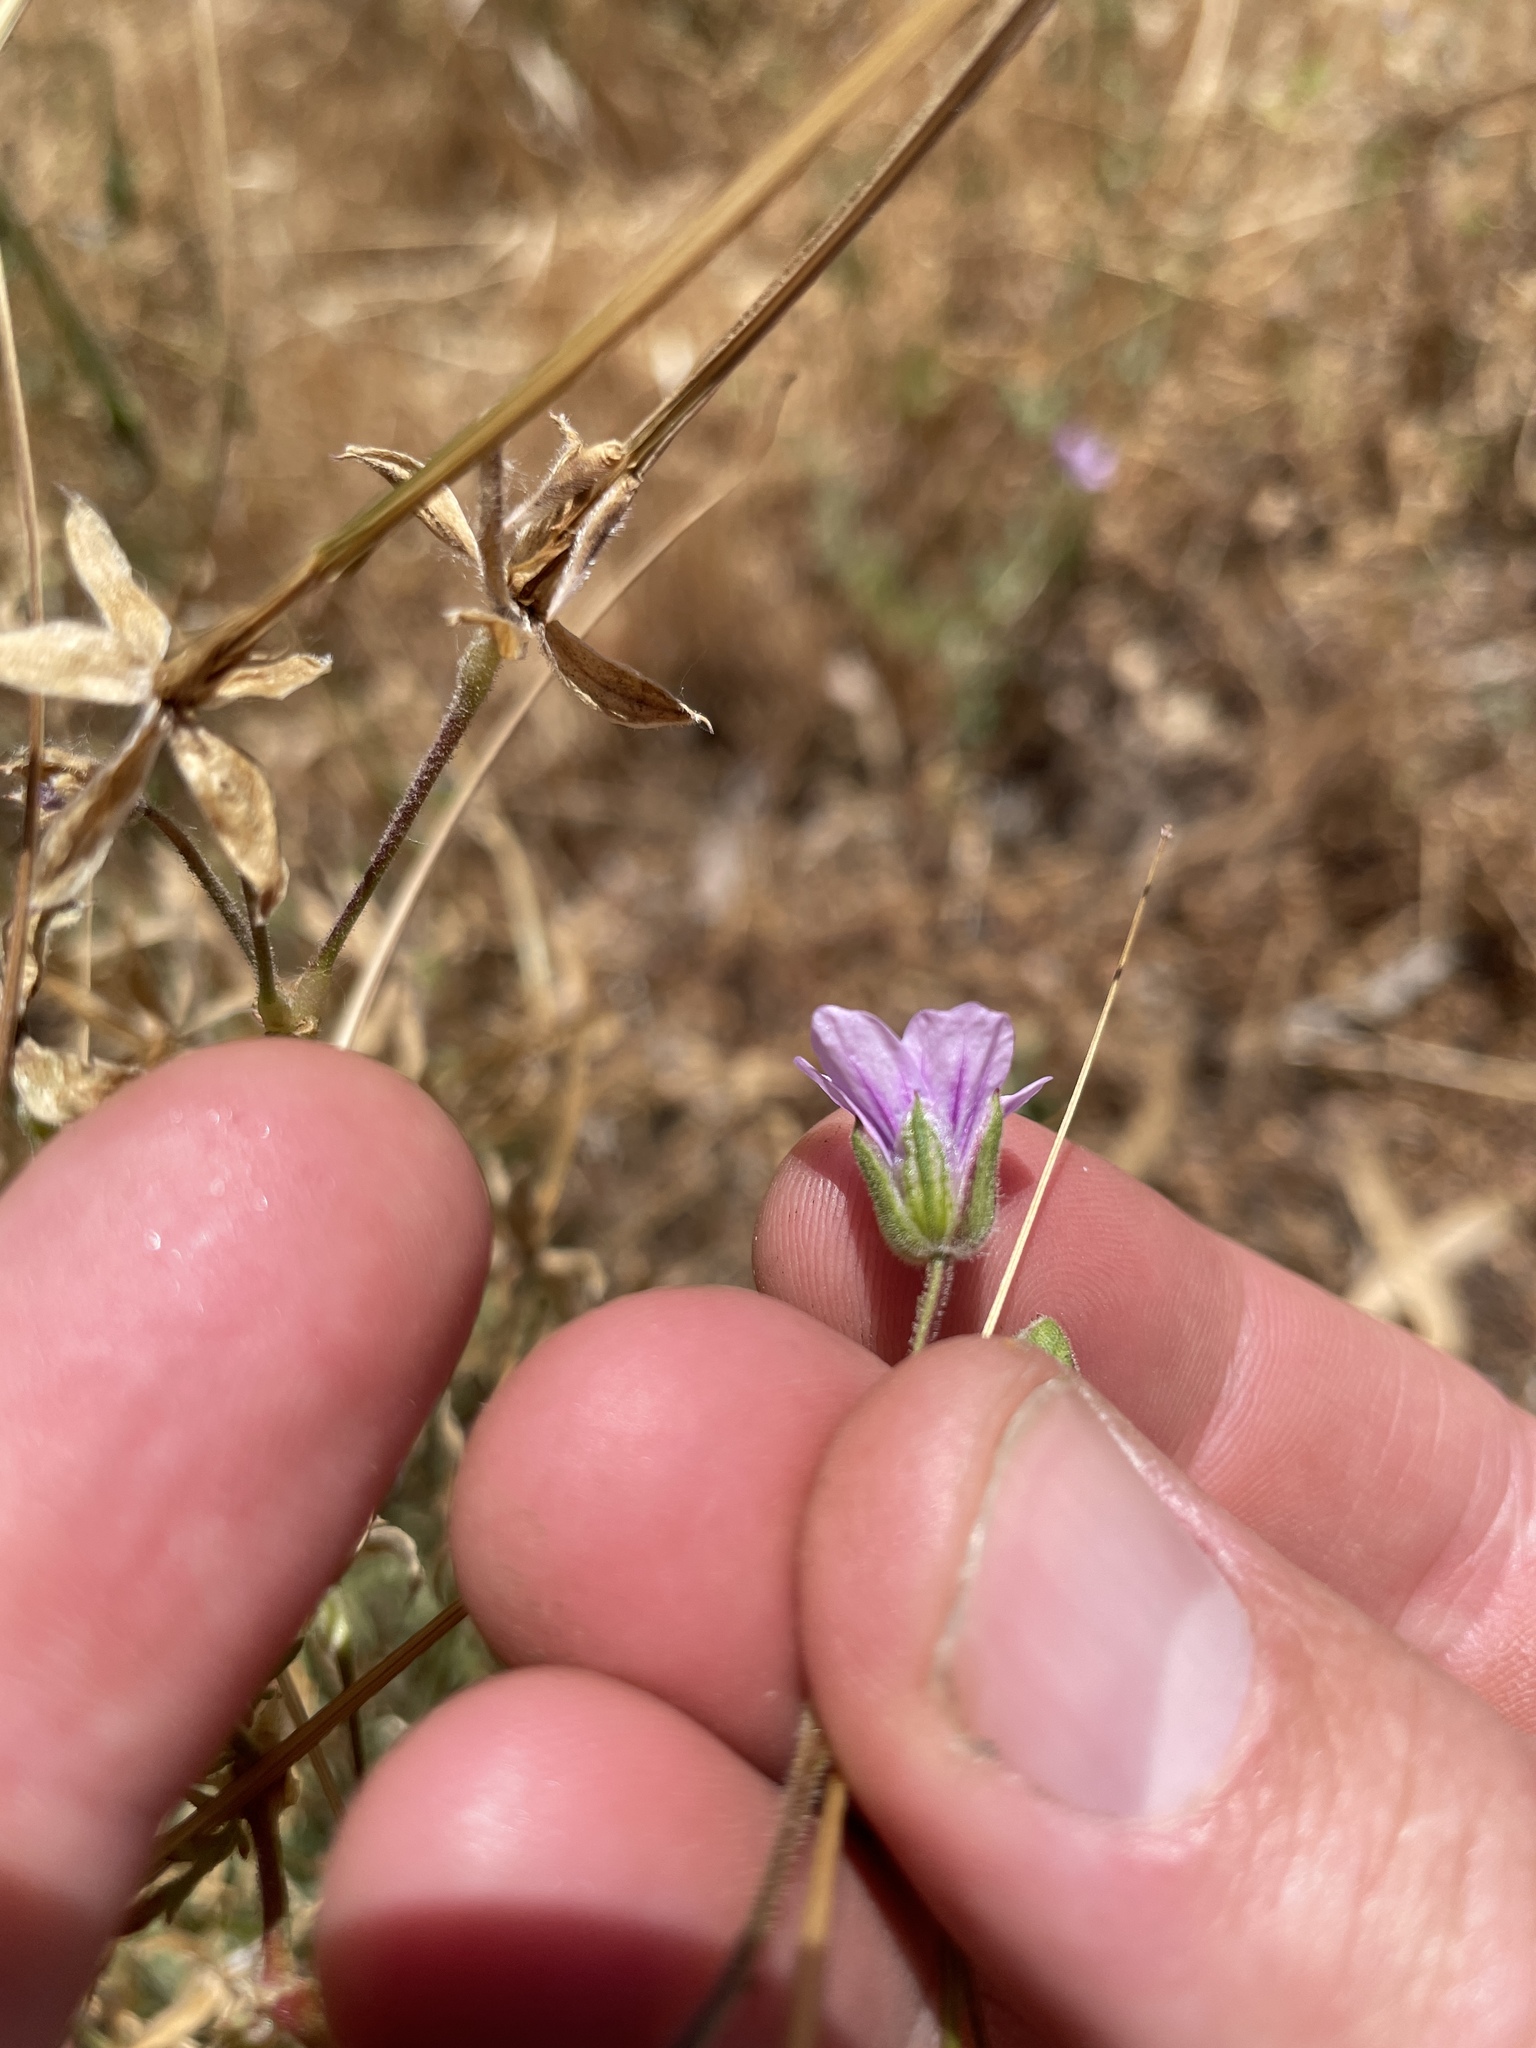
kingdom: Plantae
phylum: Tracheophyta
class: Magnoliopsida
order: Geraniales
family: Geraniaceae
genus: Erodium
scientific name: Erodium botrys
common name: Mediterranean stork's-bill
